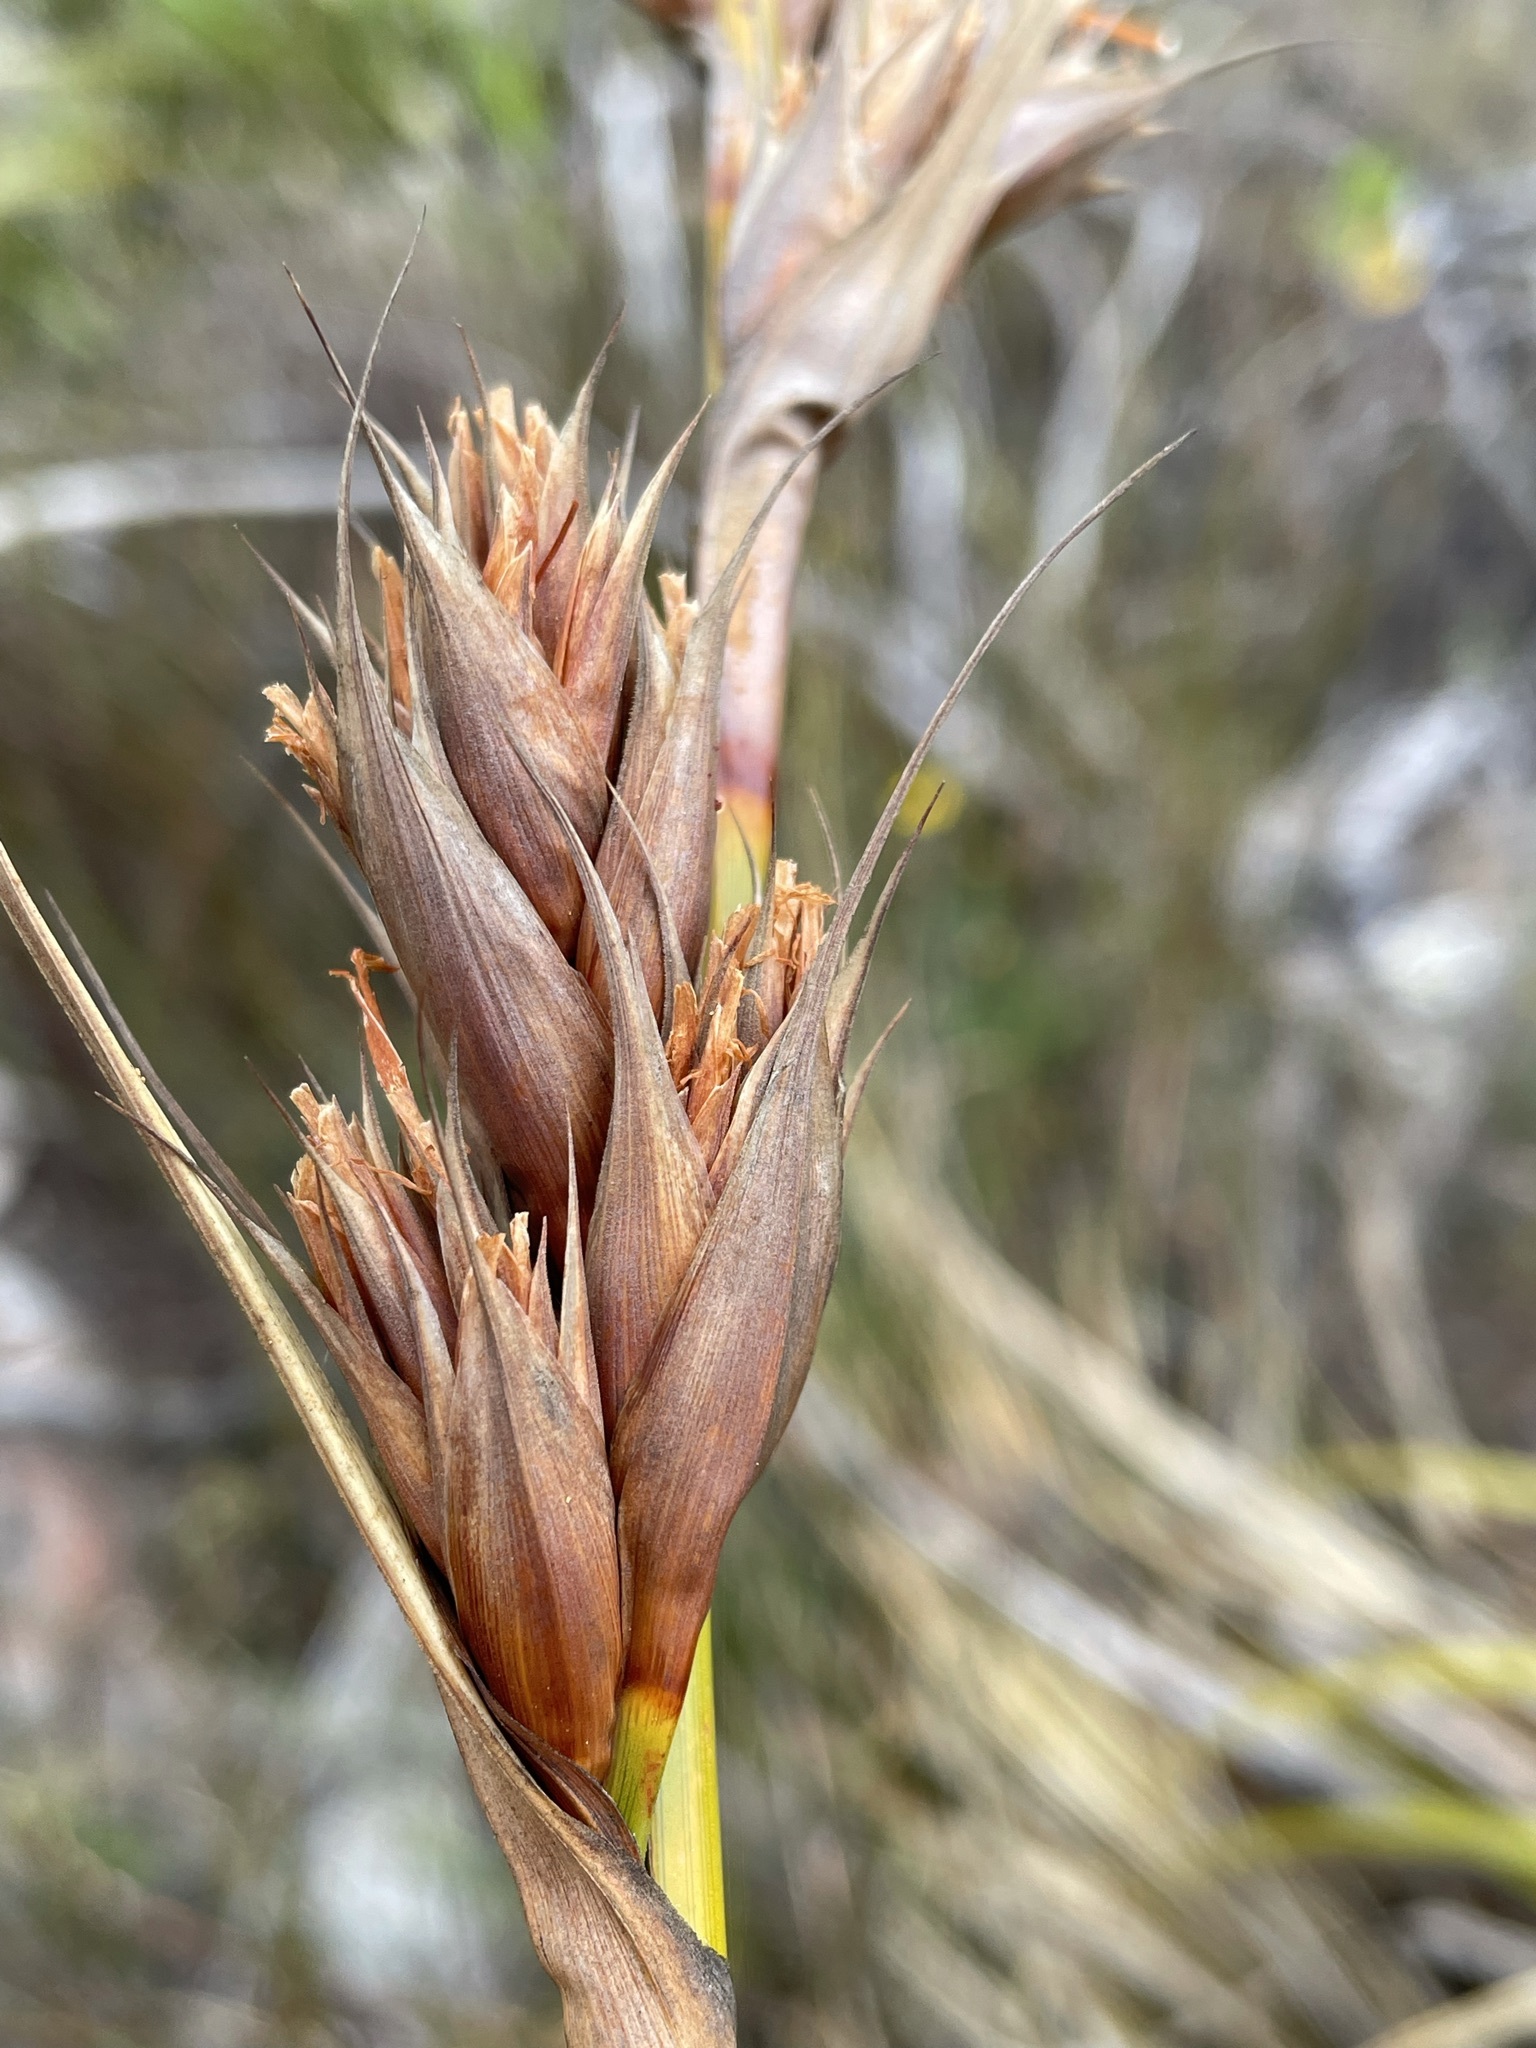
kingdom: Plantae
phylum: Tracheophyta
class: Liliopsida
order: Poales
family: Cyperaceae
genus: Tetraria
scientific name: Tetraria thermalis
